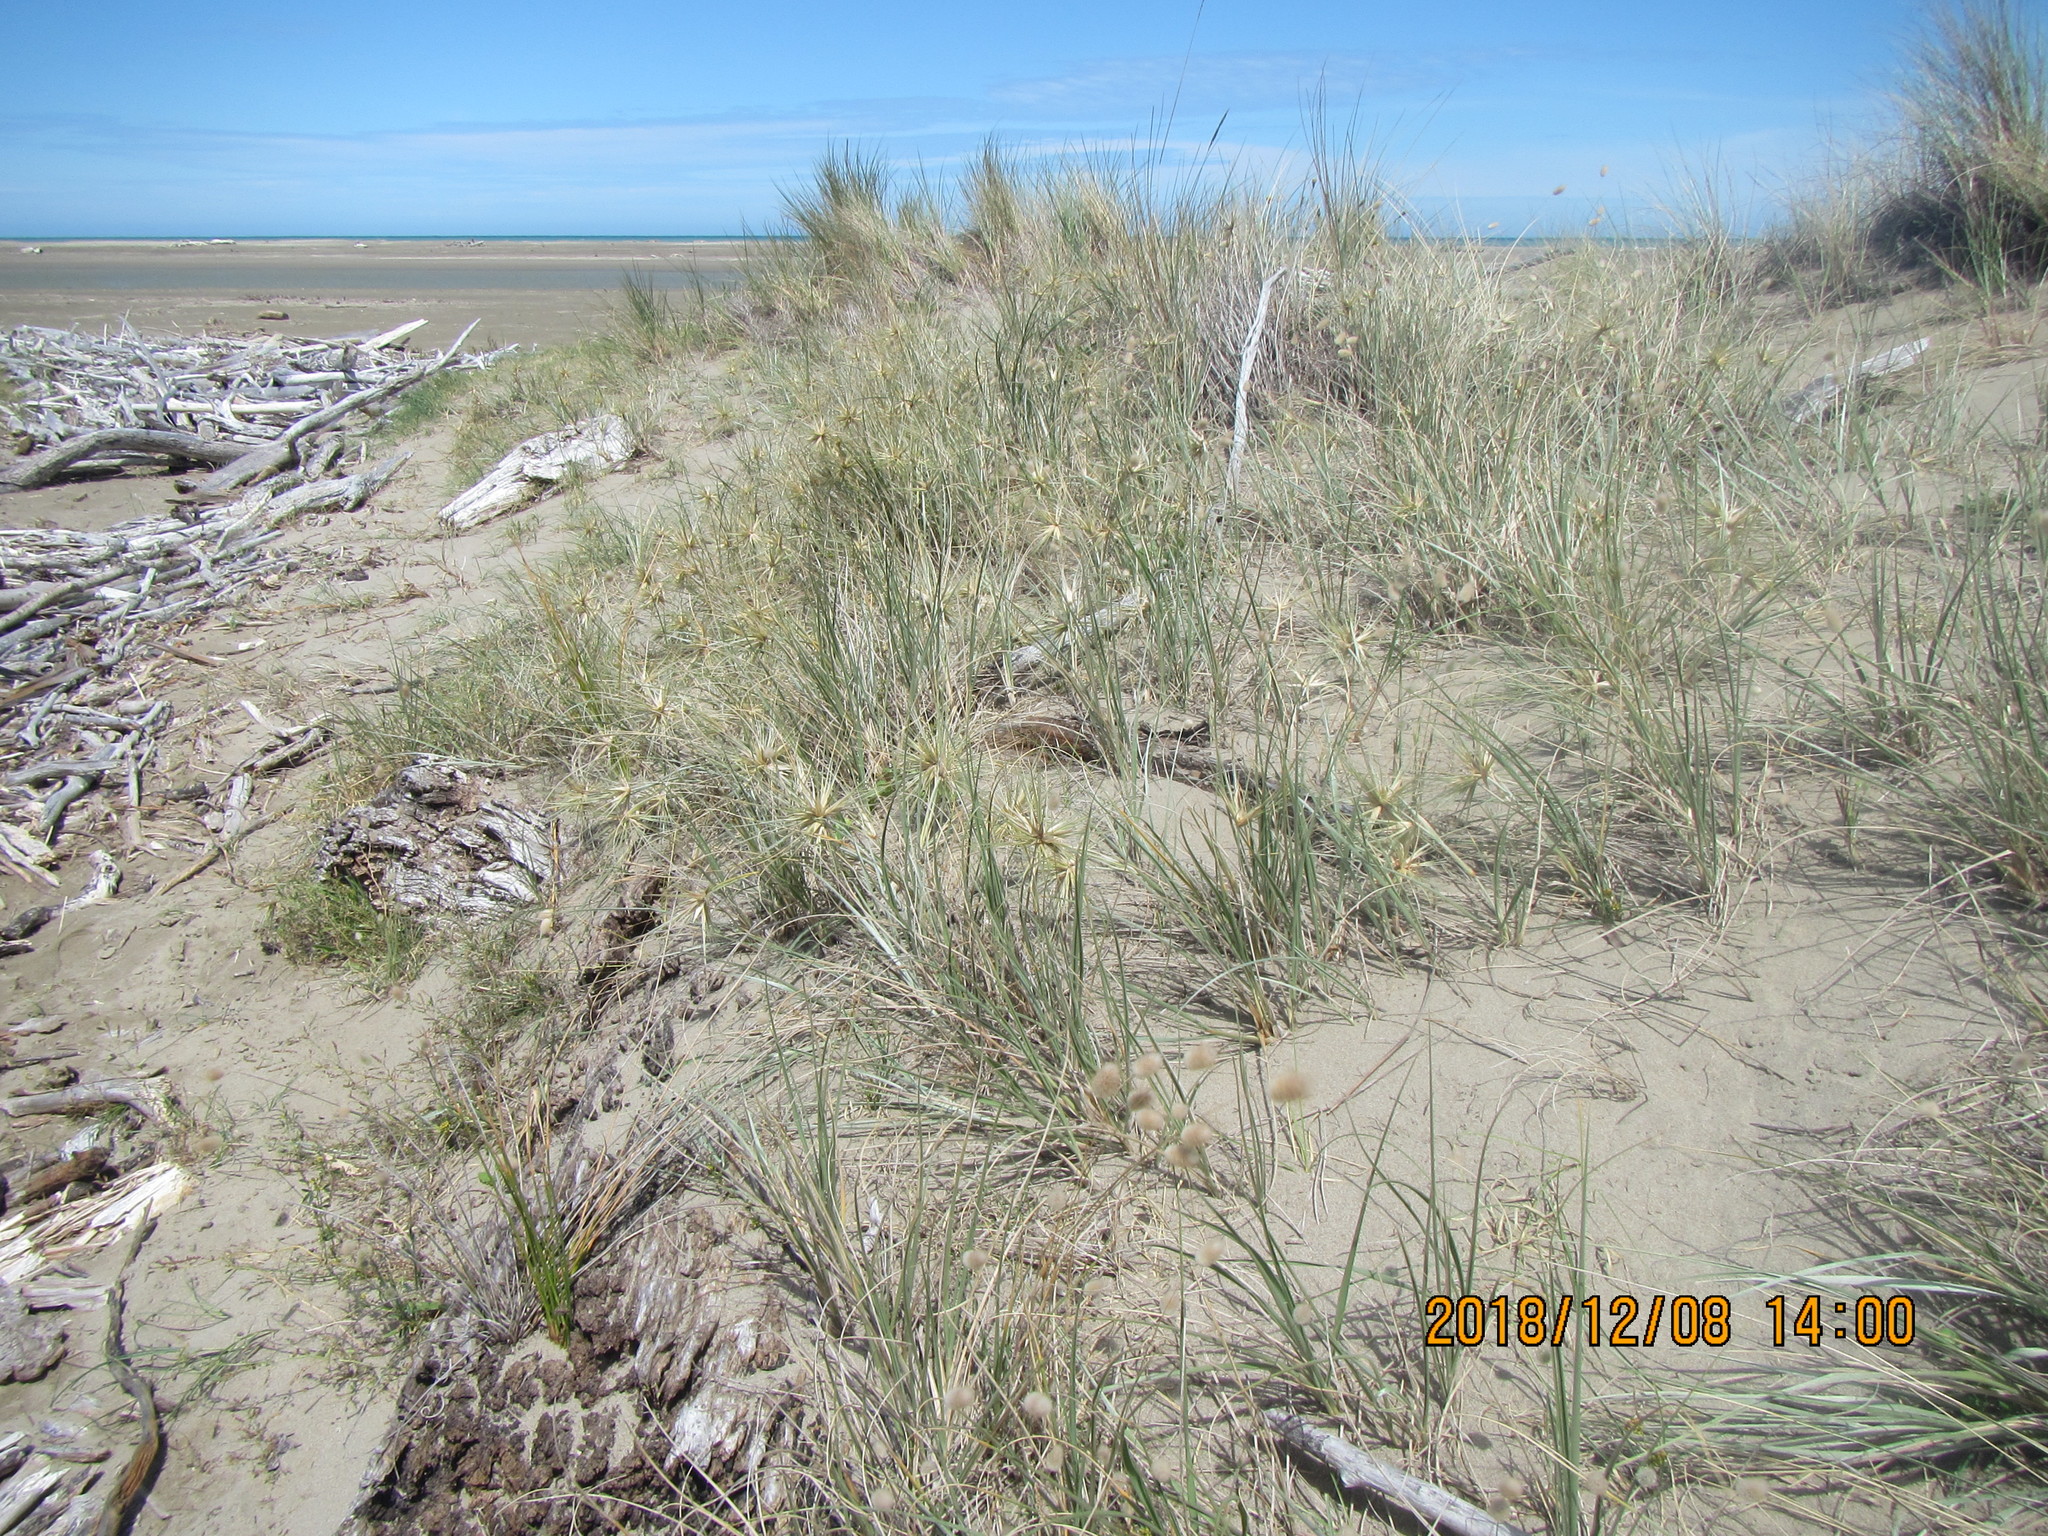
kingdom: Plantae
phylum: Tracheophyta
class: Liliopsida
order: Poales
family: Poaceae
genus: Spinifex
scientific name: Spinifex sericeus
